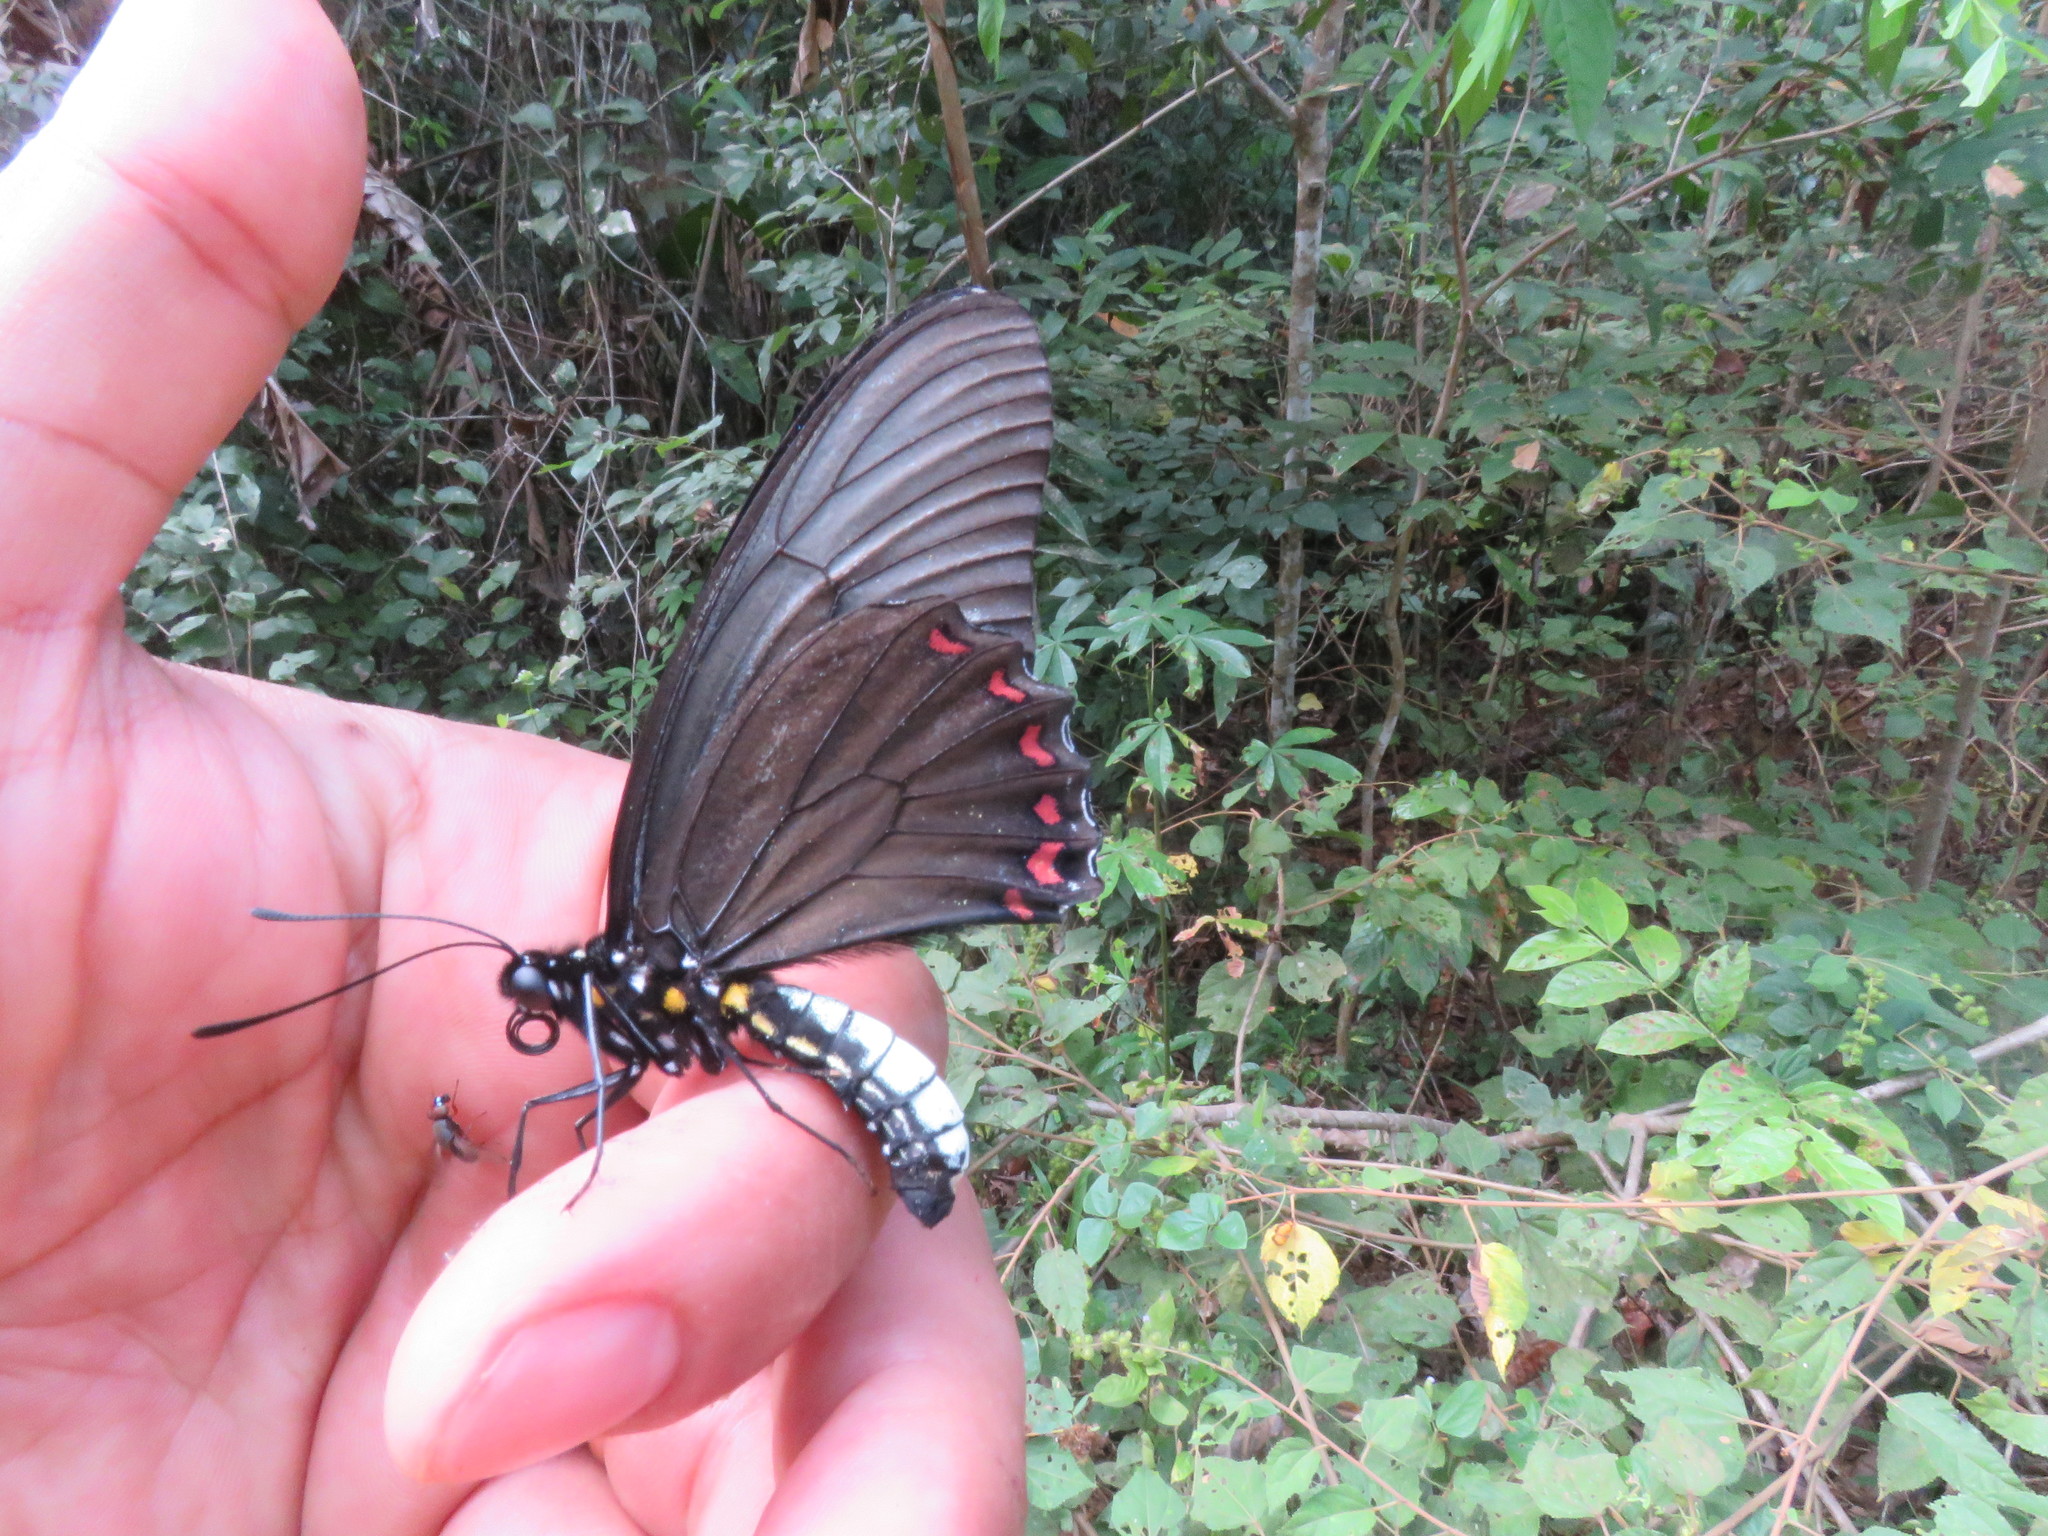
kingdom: Animalia
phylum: Arthropoda
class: Insecta
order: Lepidoptera
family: Papilionidae
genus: Battus
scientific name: Battus crassus
